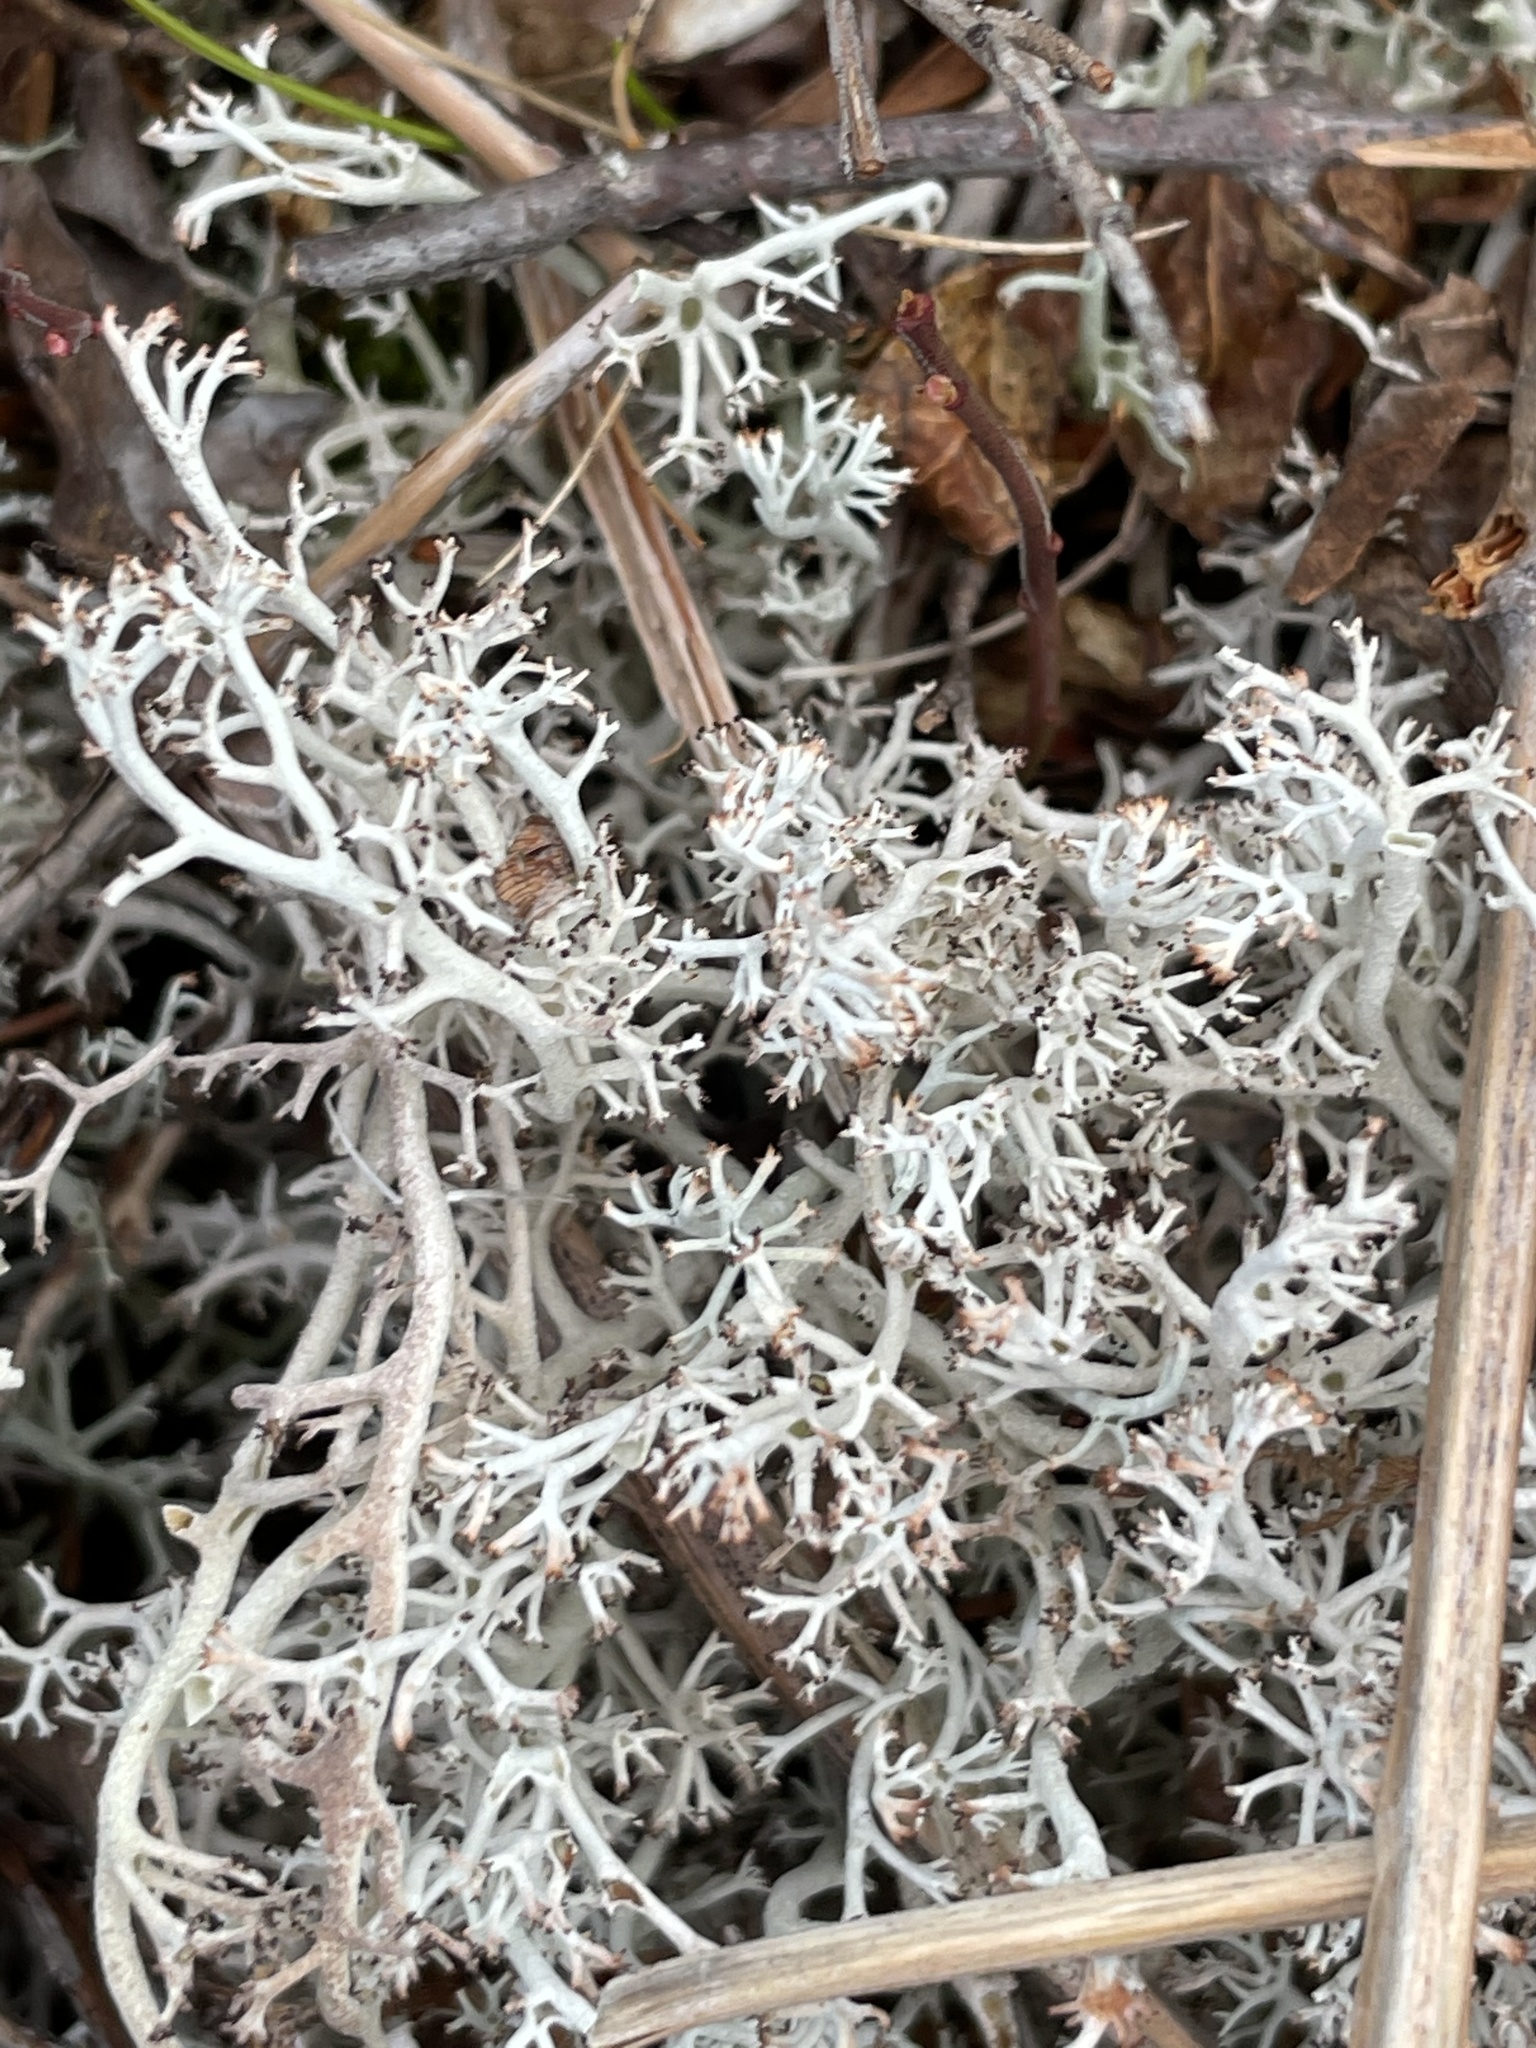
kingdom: Fungi
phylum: Ascomycota
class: Lecanoromycetes
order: Lecanorales
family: Cladoniaceae
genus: Cladonia
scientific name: Cladonia arbuscula
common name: Reindeer lichen
